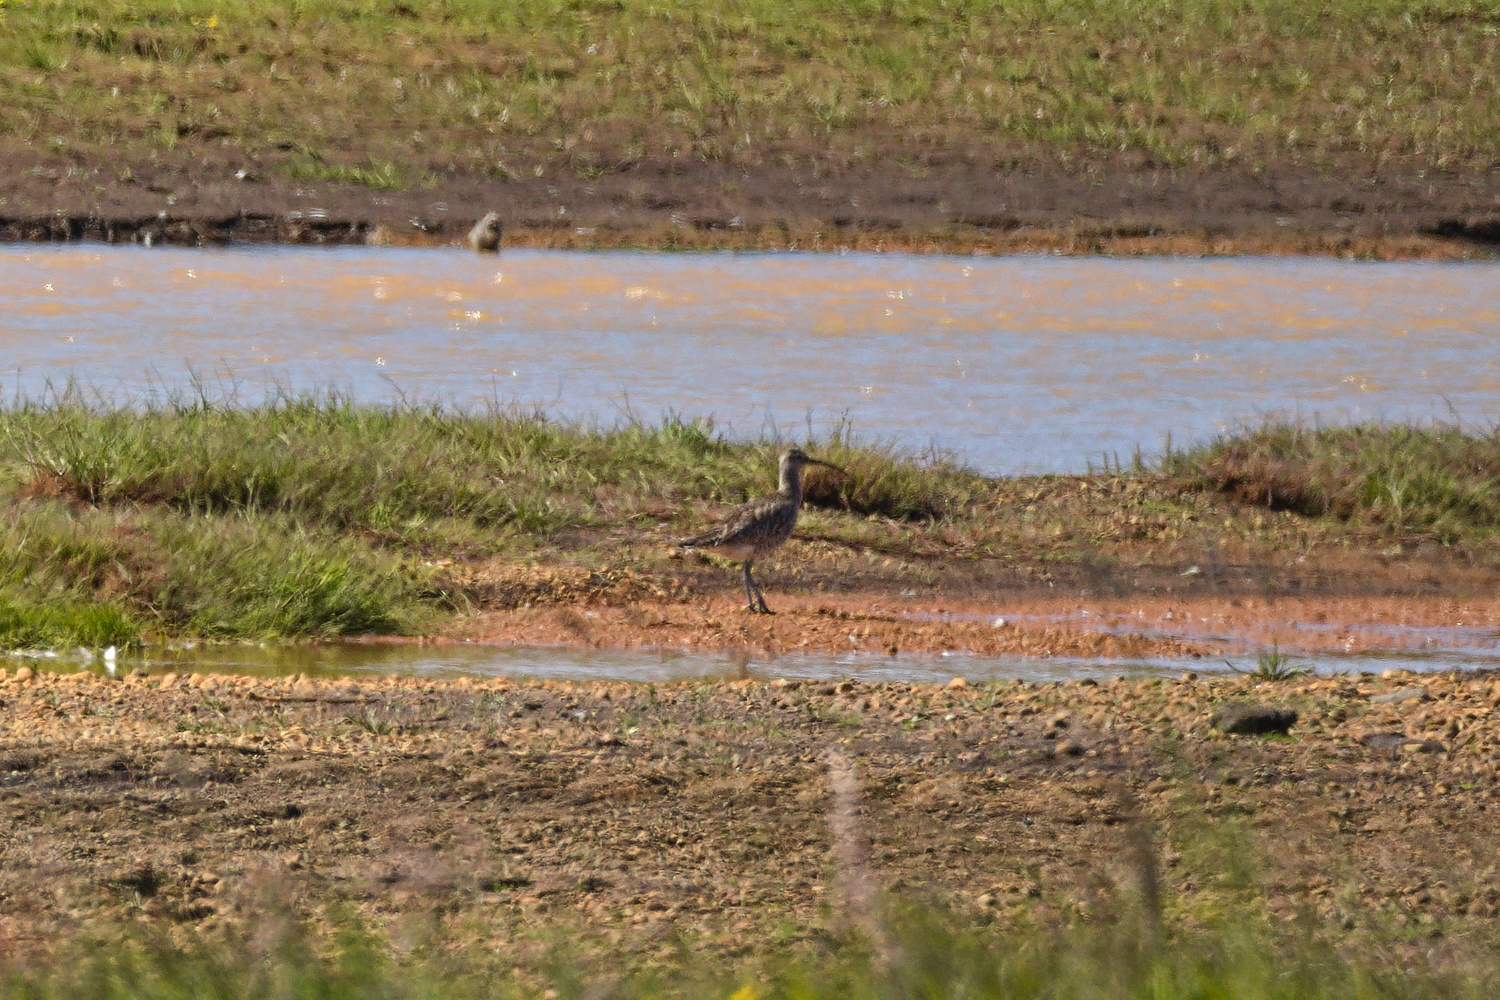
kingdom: Animalia
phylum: Chordata
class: Aves
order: Charadriiformes
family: Scolopacidae
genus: Numenius
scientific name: Numenius phaeopus
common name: Whimbrel
